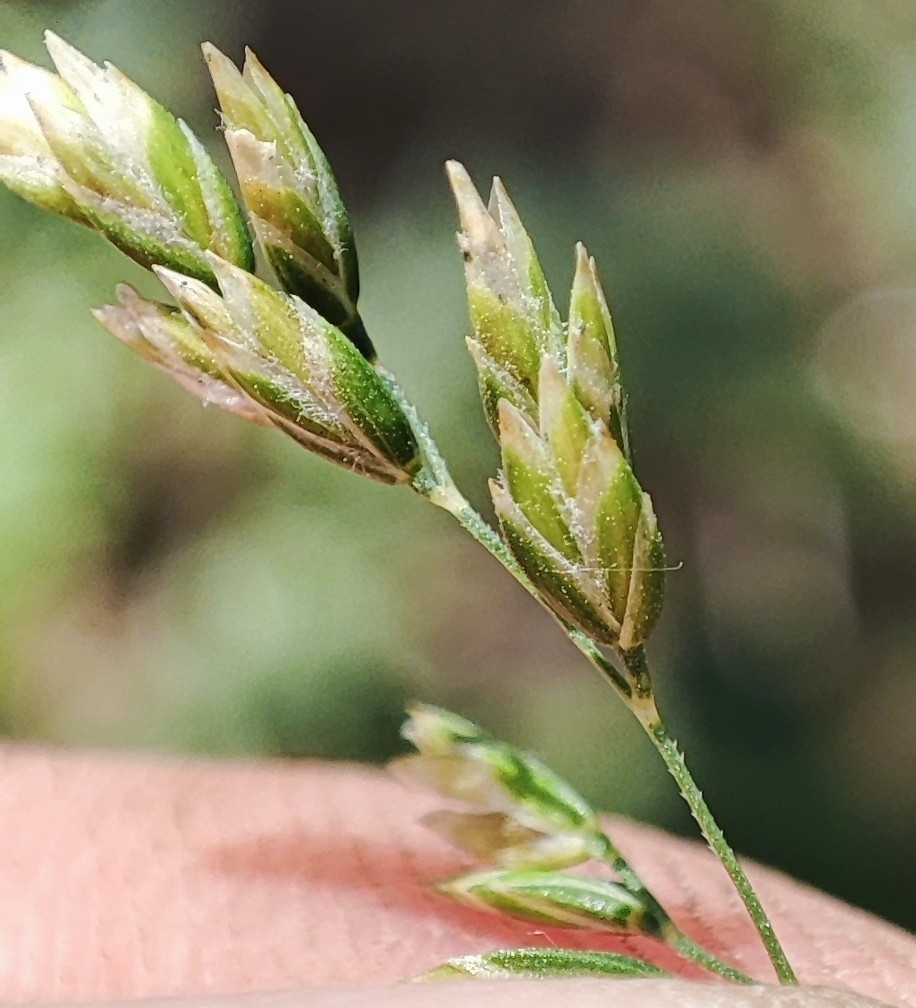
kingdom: Plantae
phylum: Tracheophyta
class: Liliopsida
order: Poales
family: Poaceae
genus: Poa
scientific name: Poa pratensis
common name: Kentucky bluegrass
